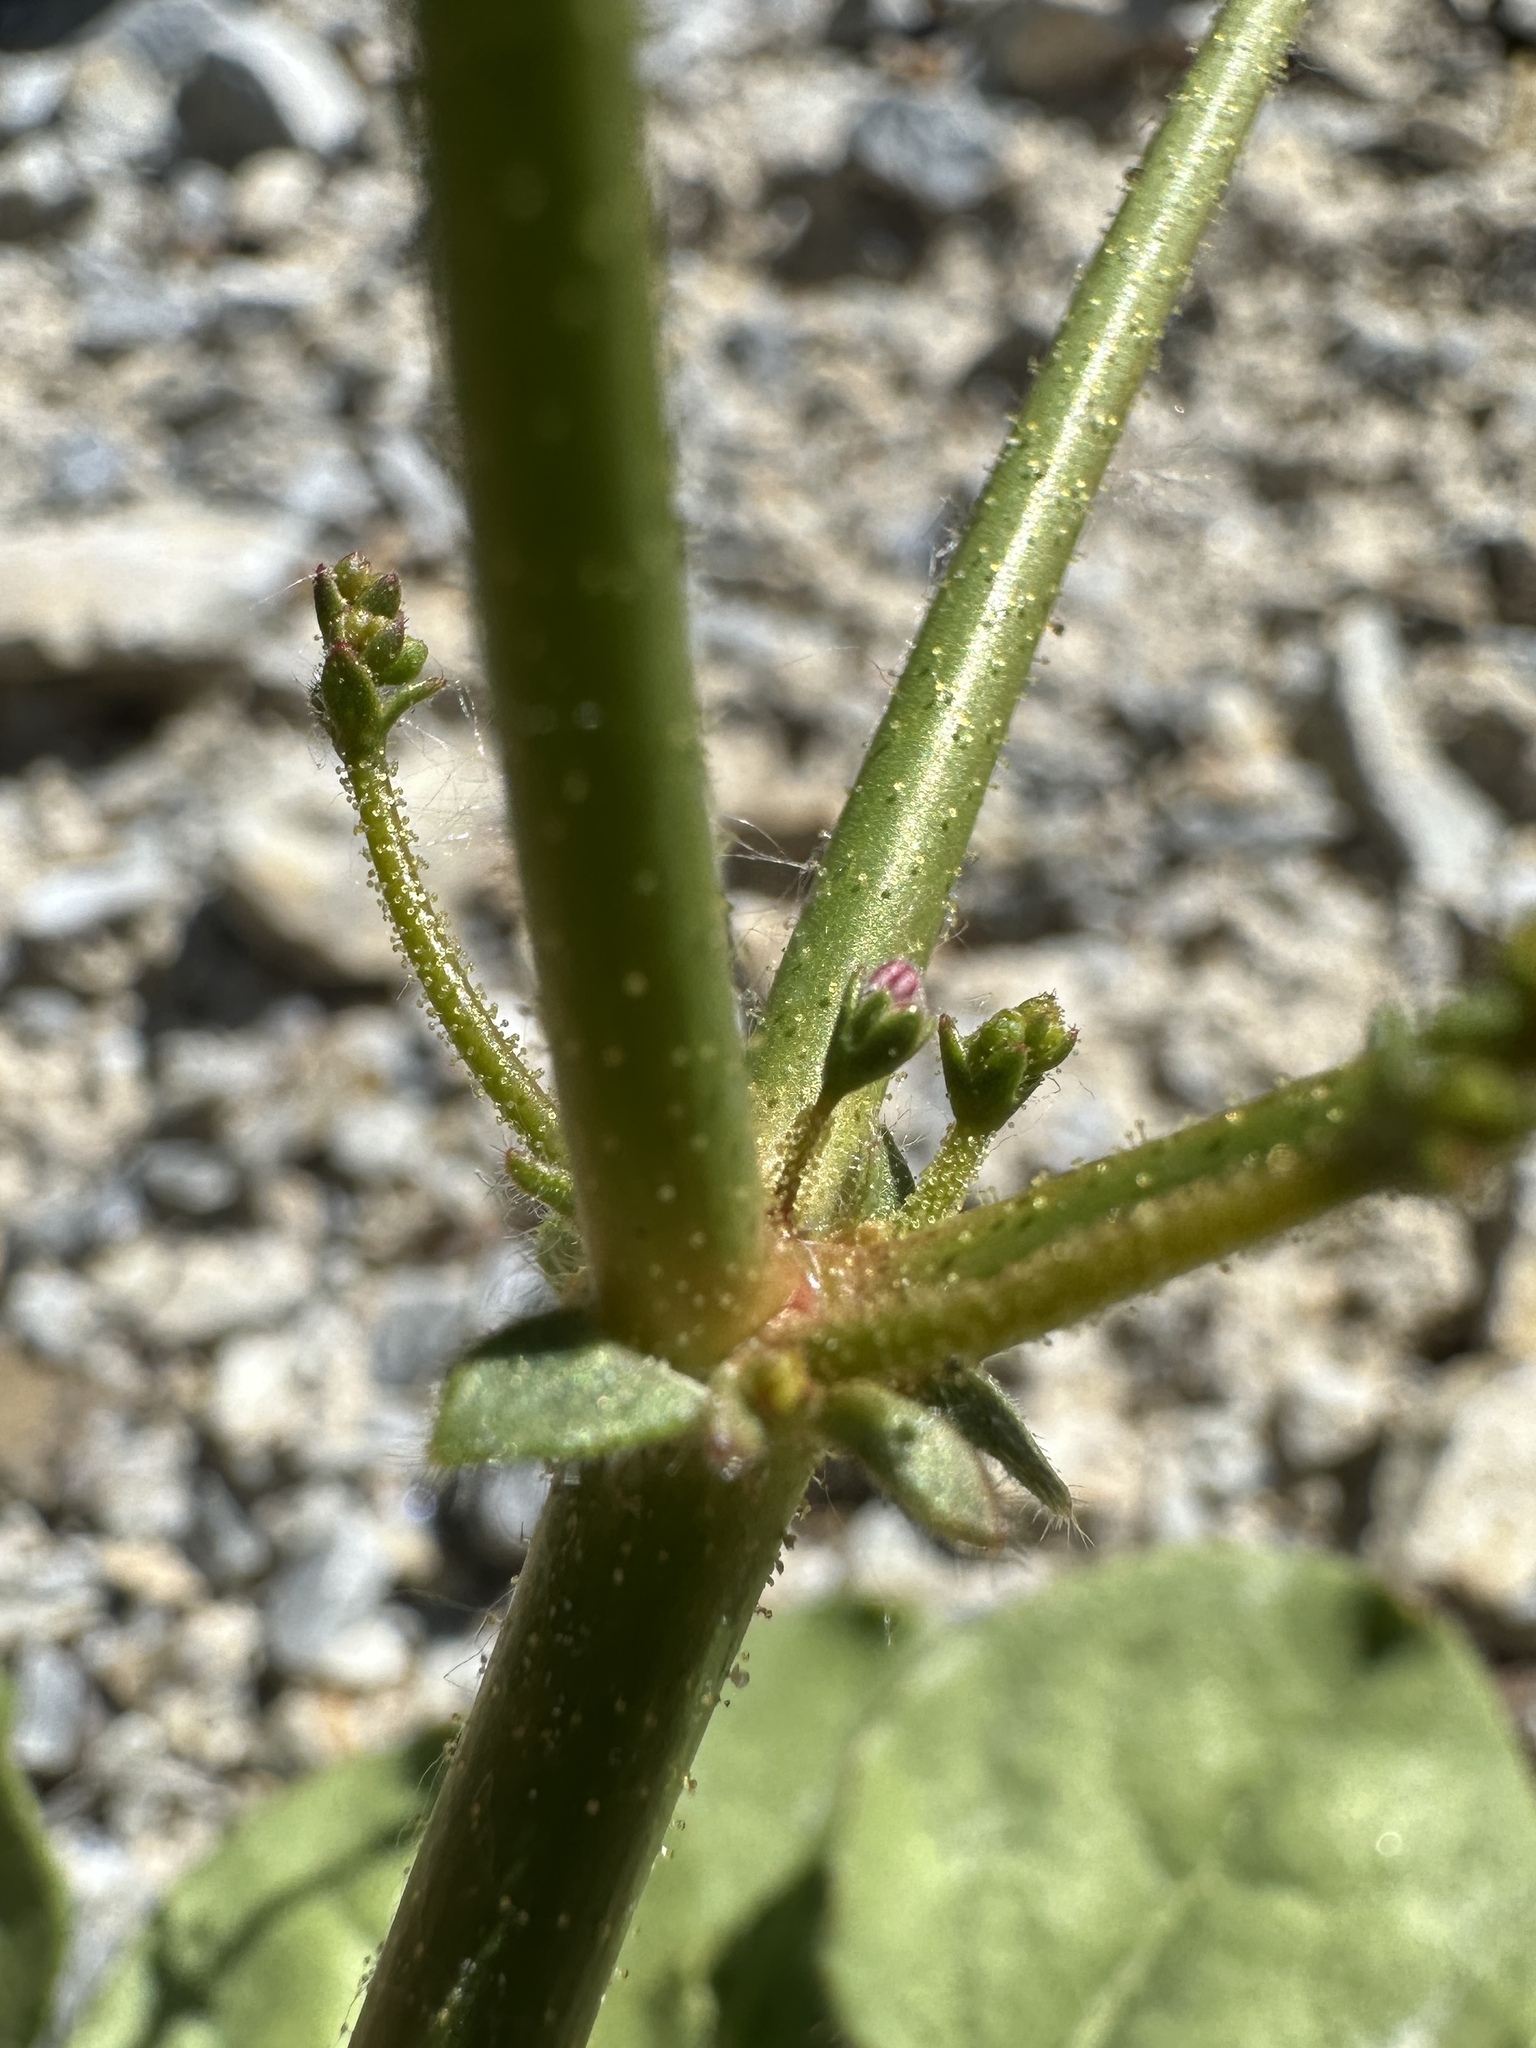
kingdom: Plantae
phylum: Tracheophyta
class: Magnoliopsida
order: Caryophyllales
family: Polygonaceae
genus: Eriogonum
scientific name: Eriogonum glandulosum
